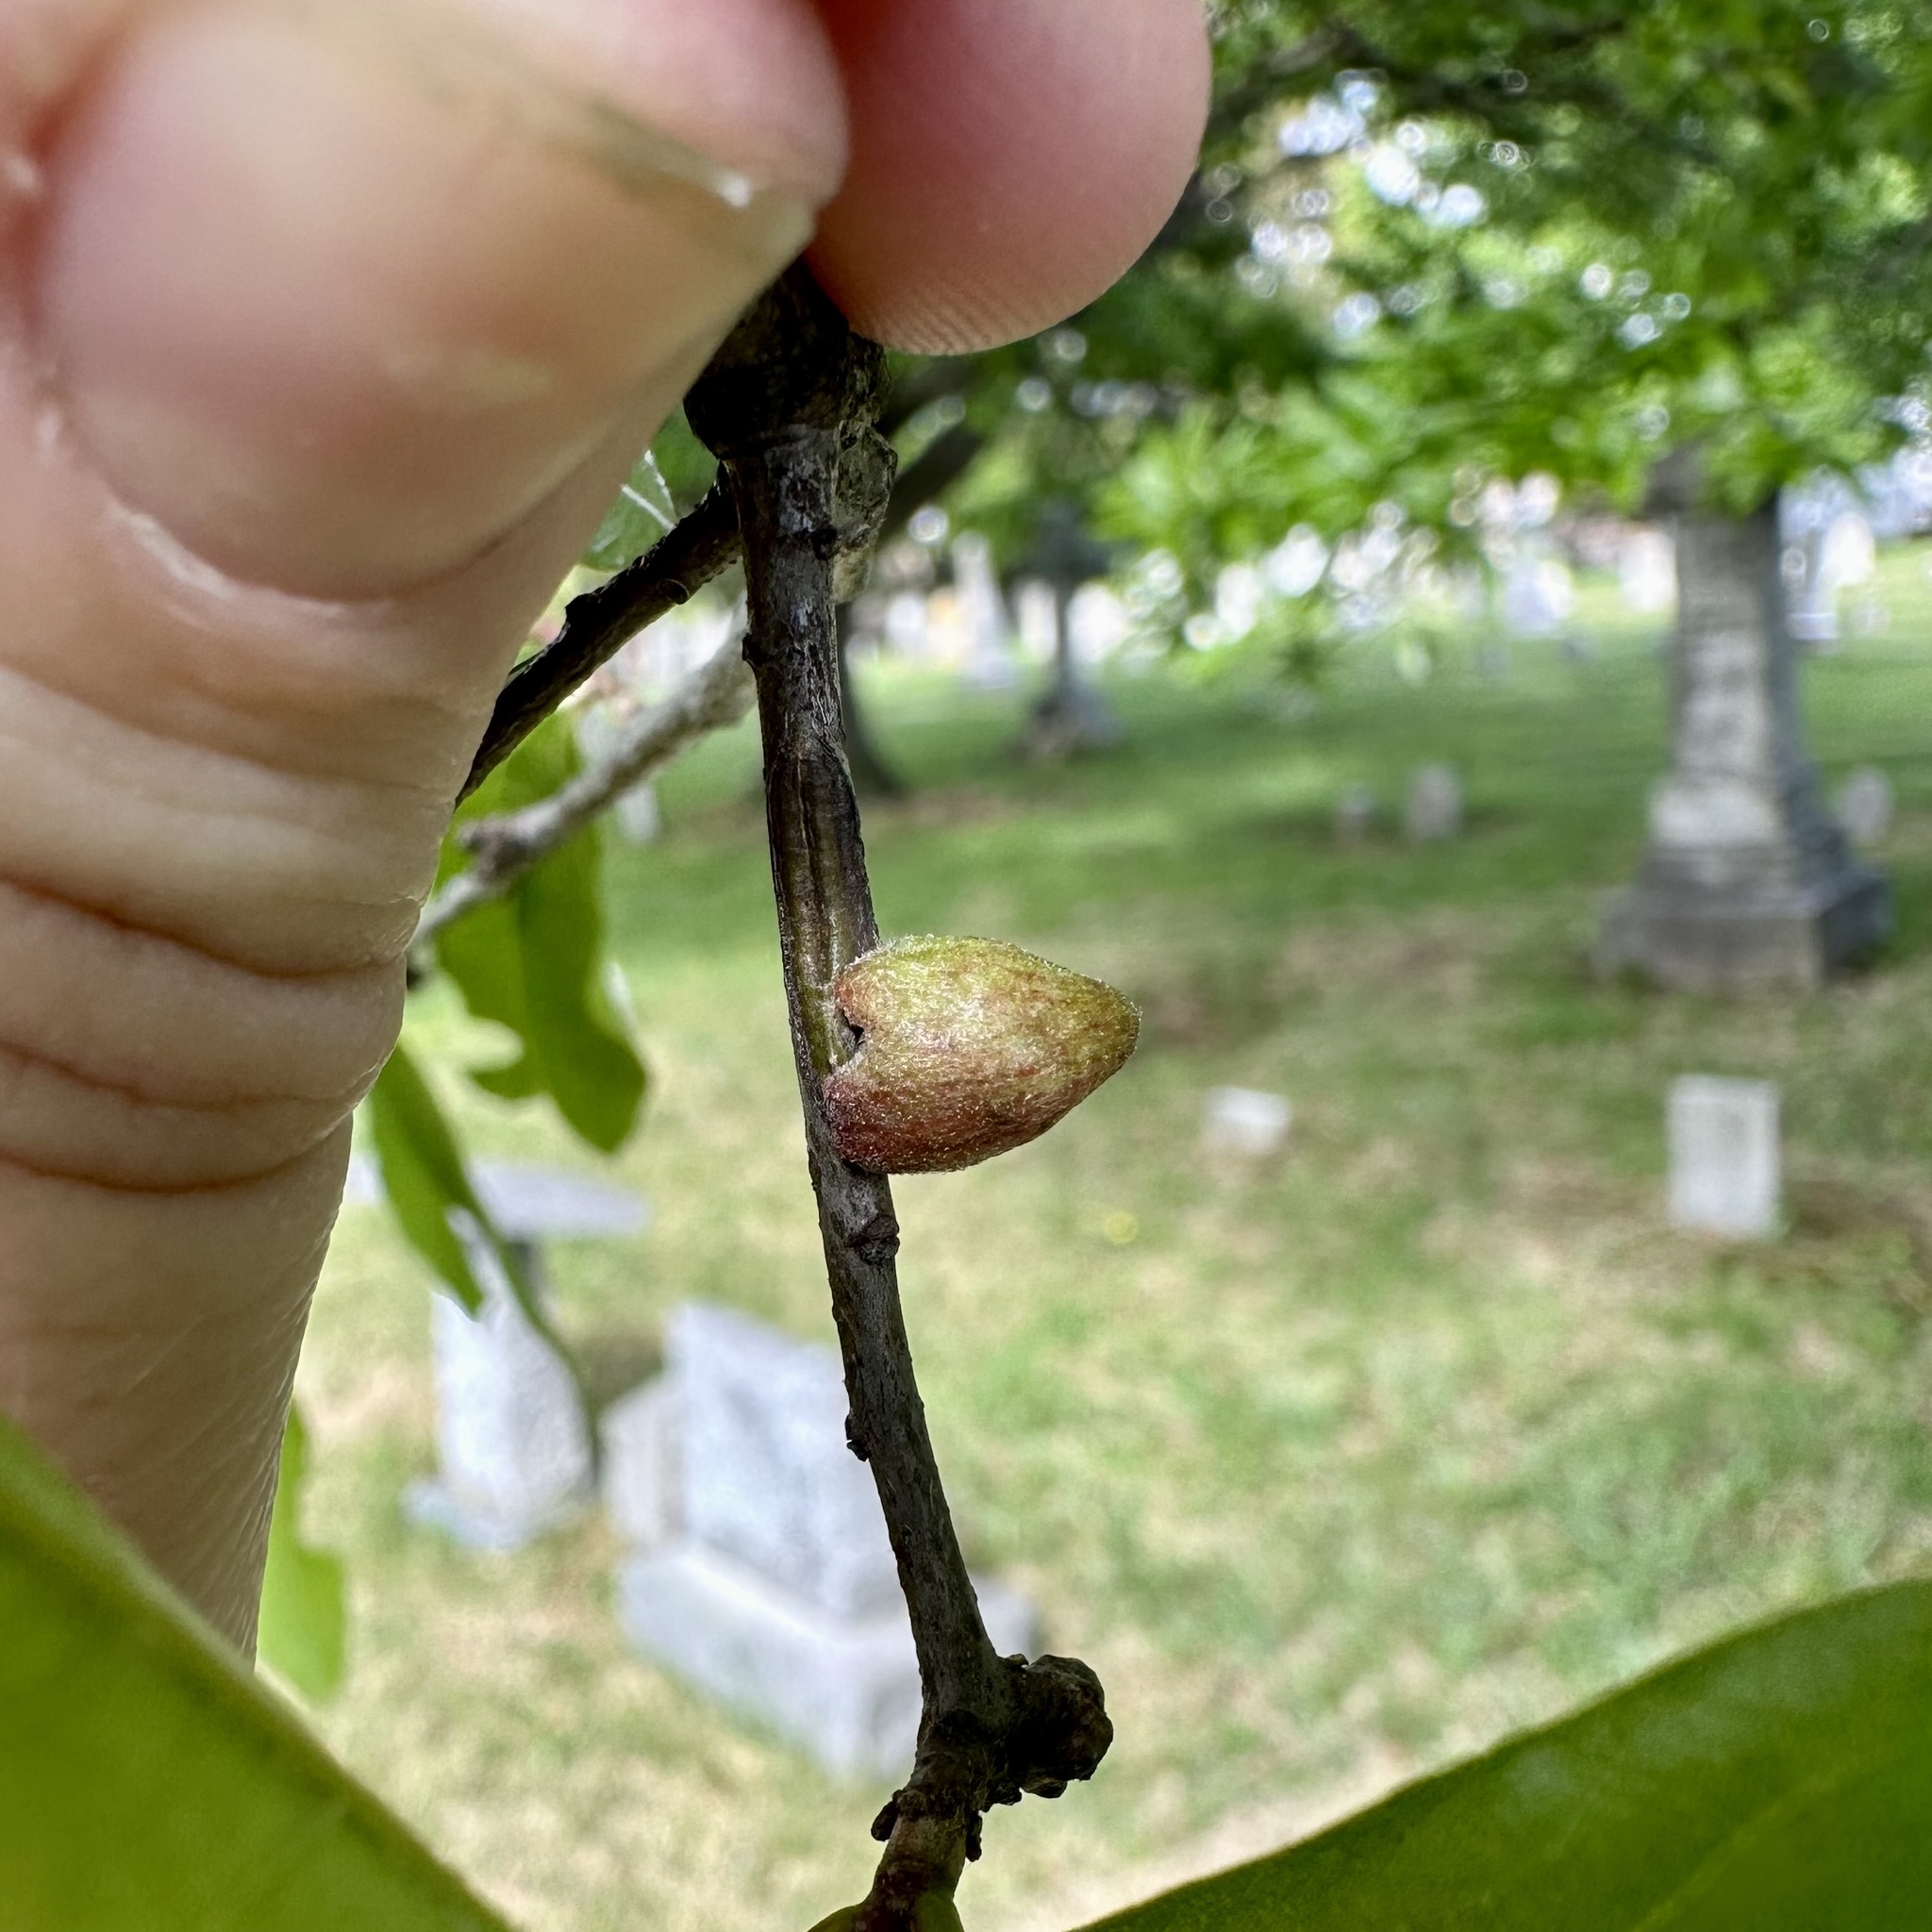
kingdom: Animalia
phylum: Arthropoda
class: Insecta
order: Hymenoptera
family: Cynipidae
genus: Callirhytis
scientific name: Callirhytis
